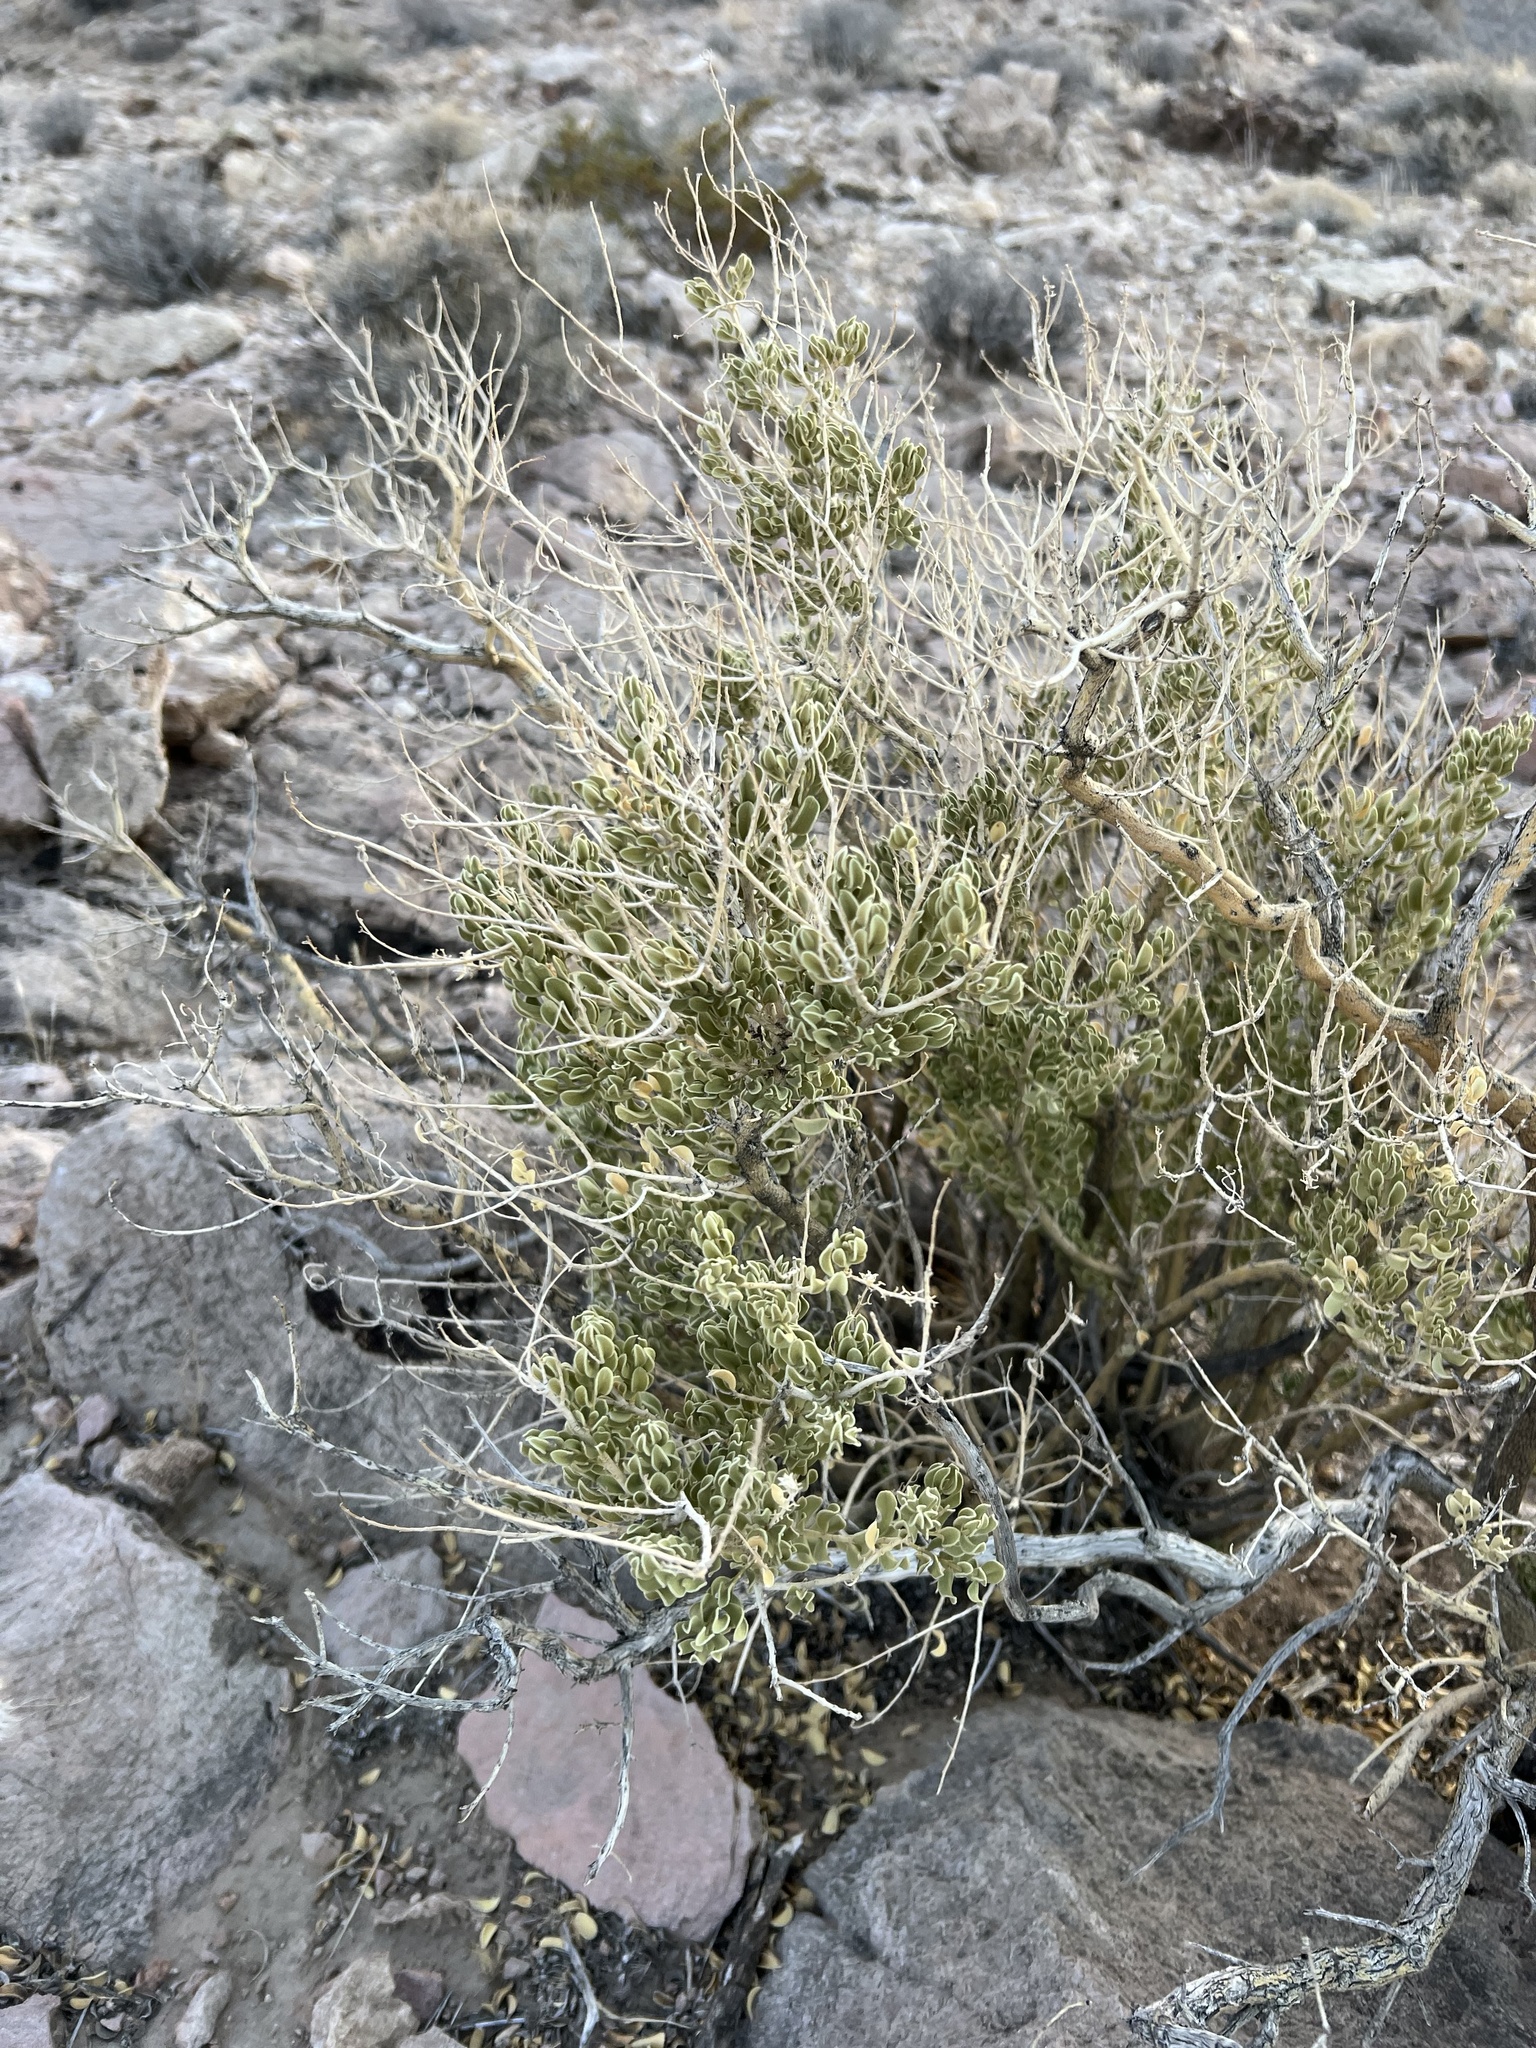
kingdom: Plantae
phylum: Tracheophyta
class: Magnoliopsida
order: Celastrales
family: Celastraceae
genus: Mortonia
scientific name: Mortonia utahensis
